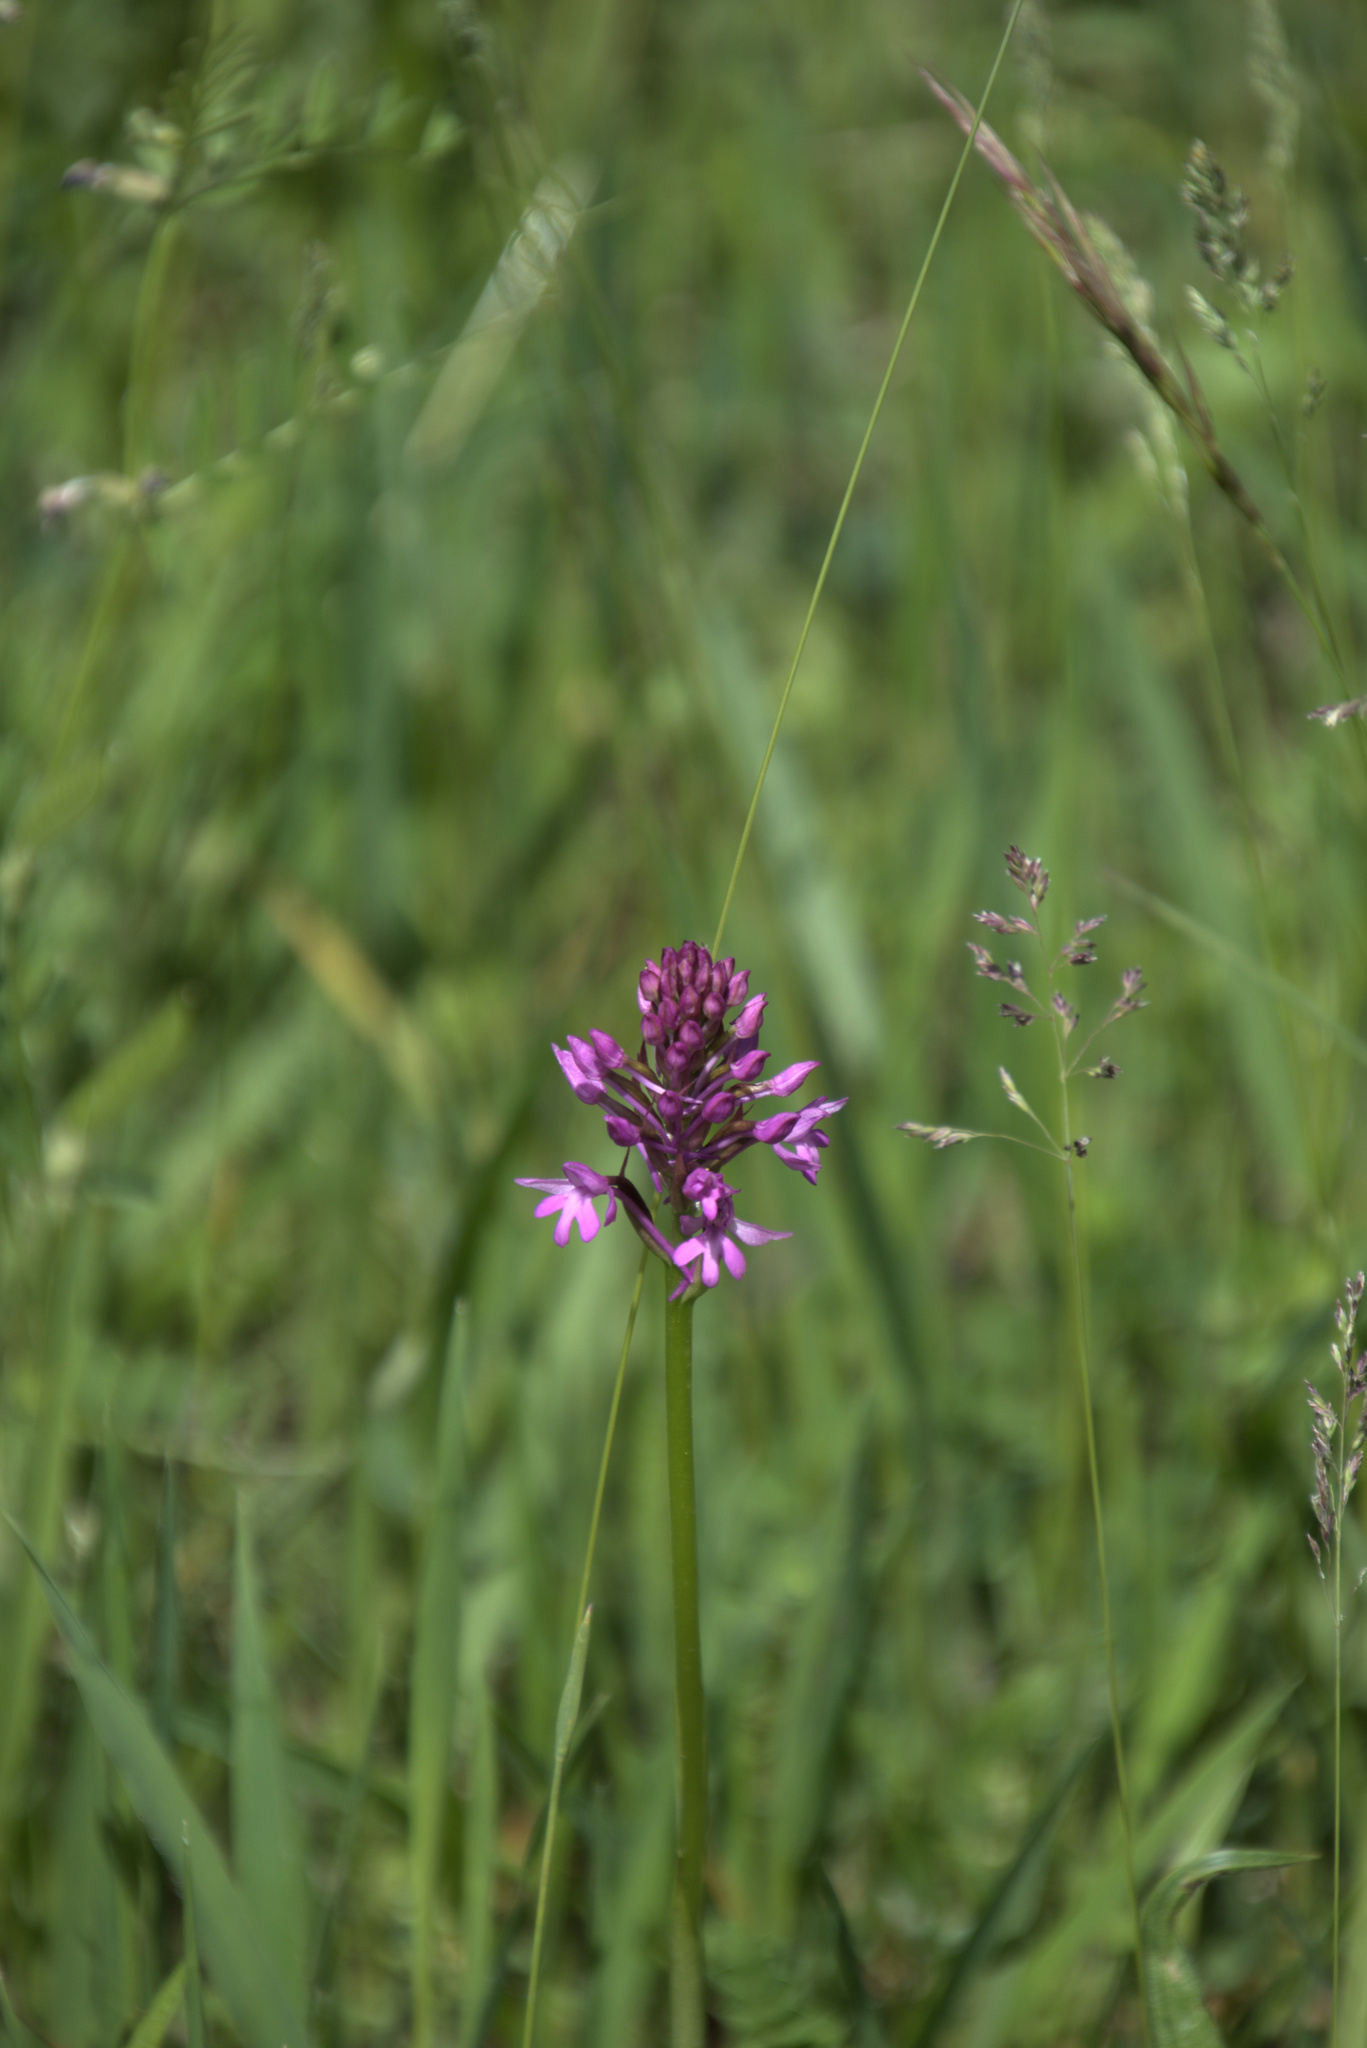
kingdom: Plantae
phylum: Tracheophyta
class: Liliopsida
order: Asparagales
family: Orchidaceae
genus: Anacamptis
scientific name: Anacamptis pyramidalis
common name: Pyramidal orchid
